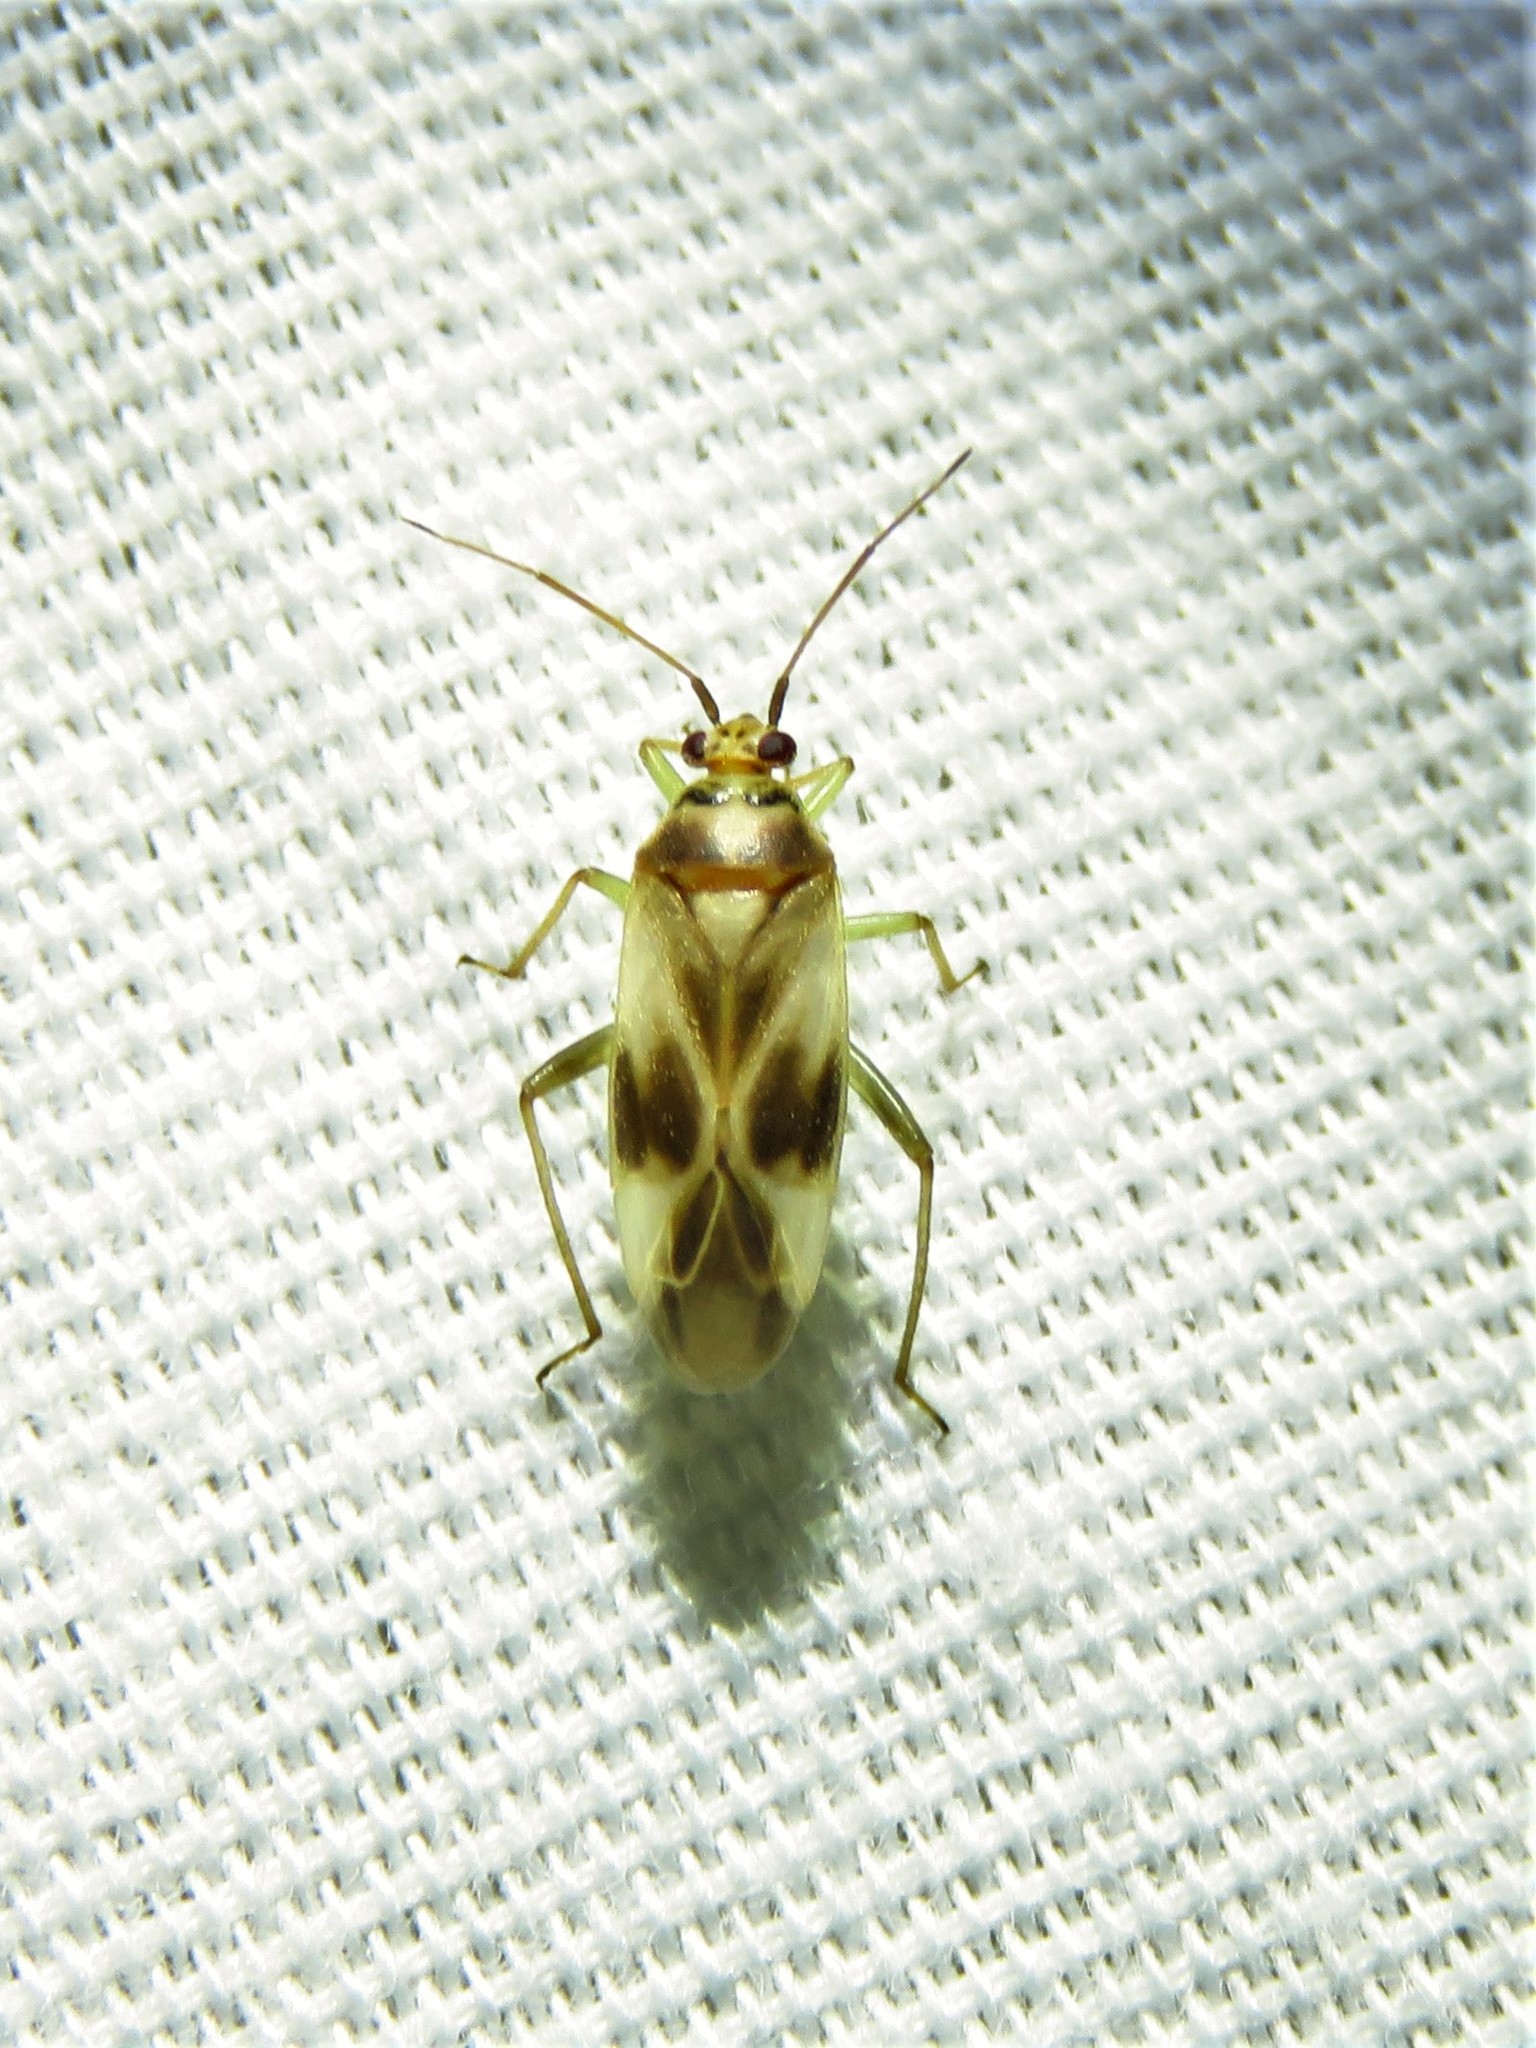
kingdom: Animalia
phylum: Arthropoda
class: Insecta
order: Hemiptera
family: Miridae
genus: Orthotylus
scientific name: Orthotylus ornatus
